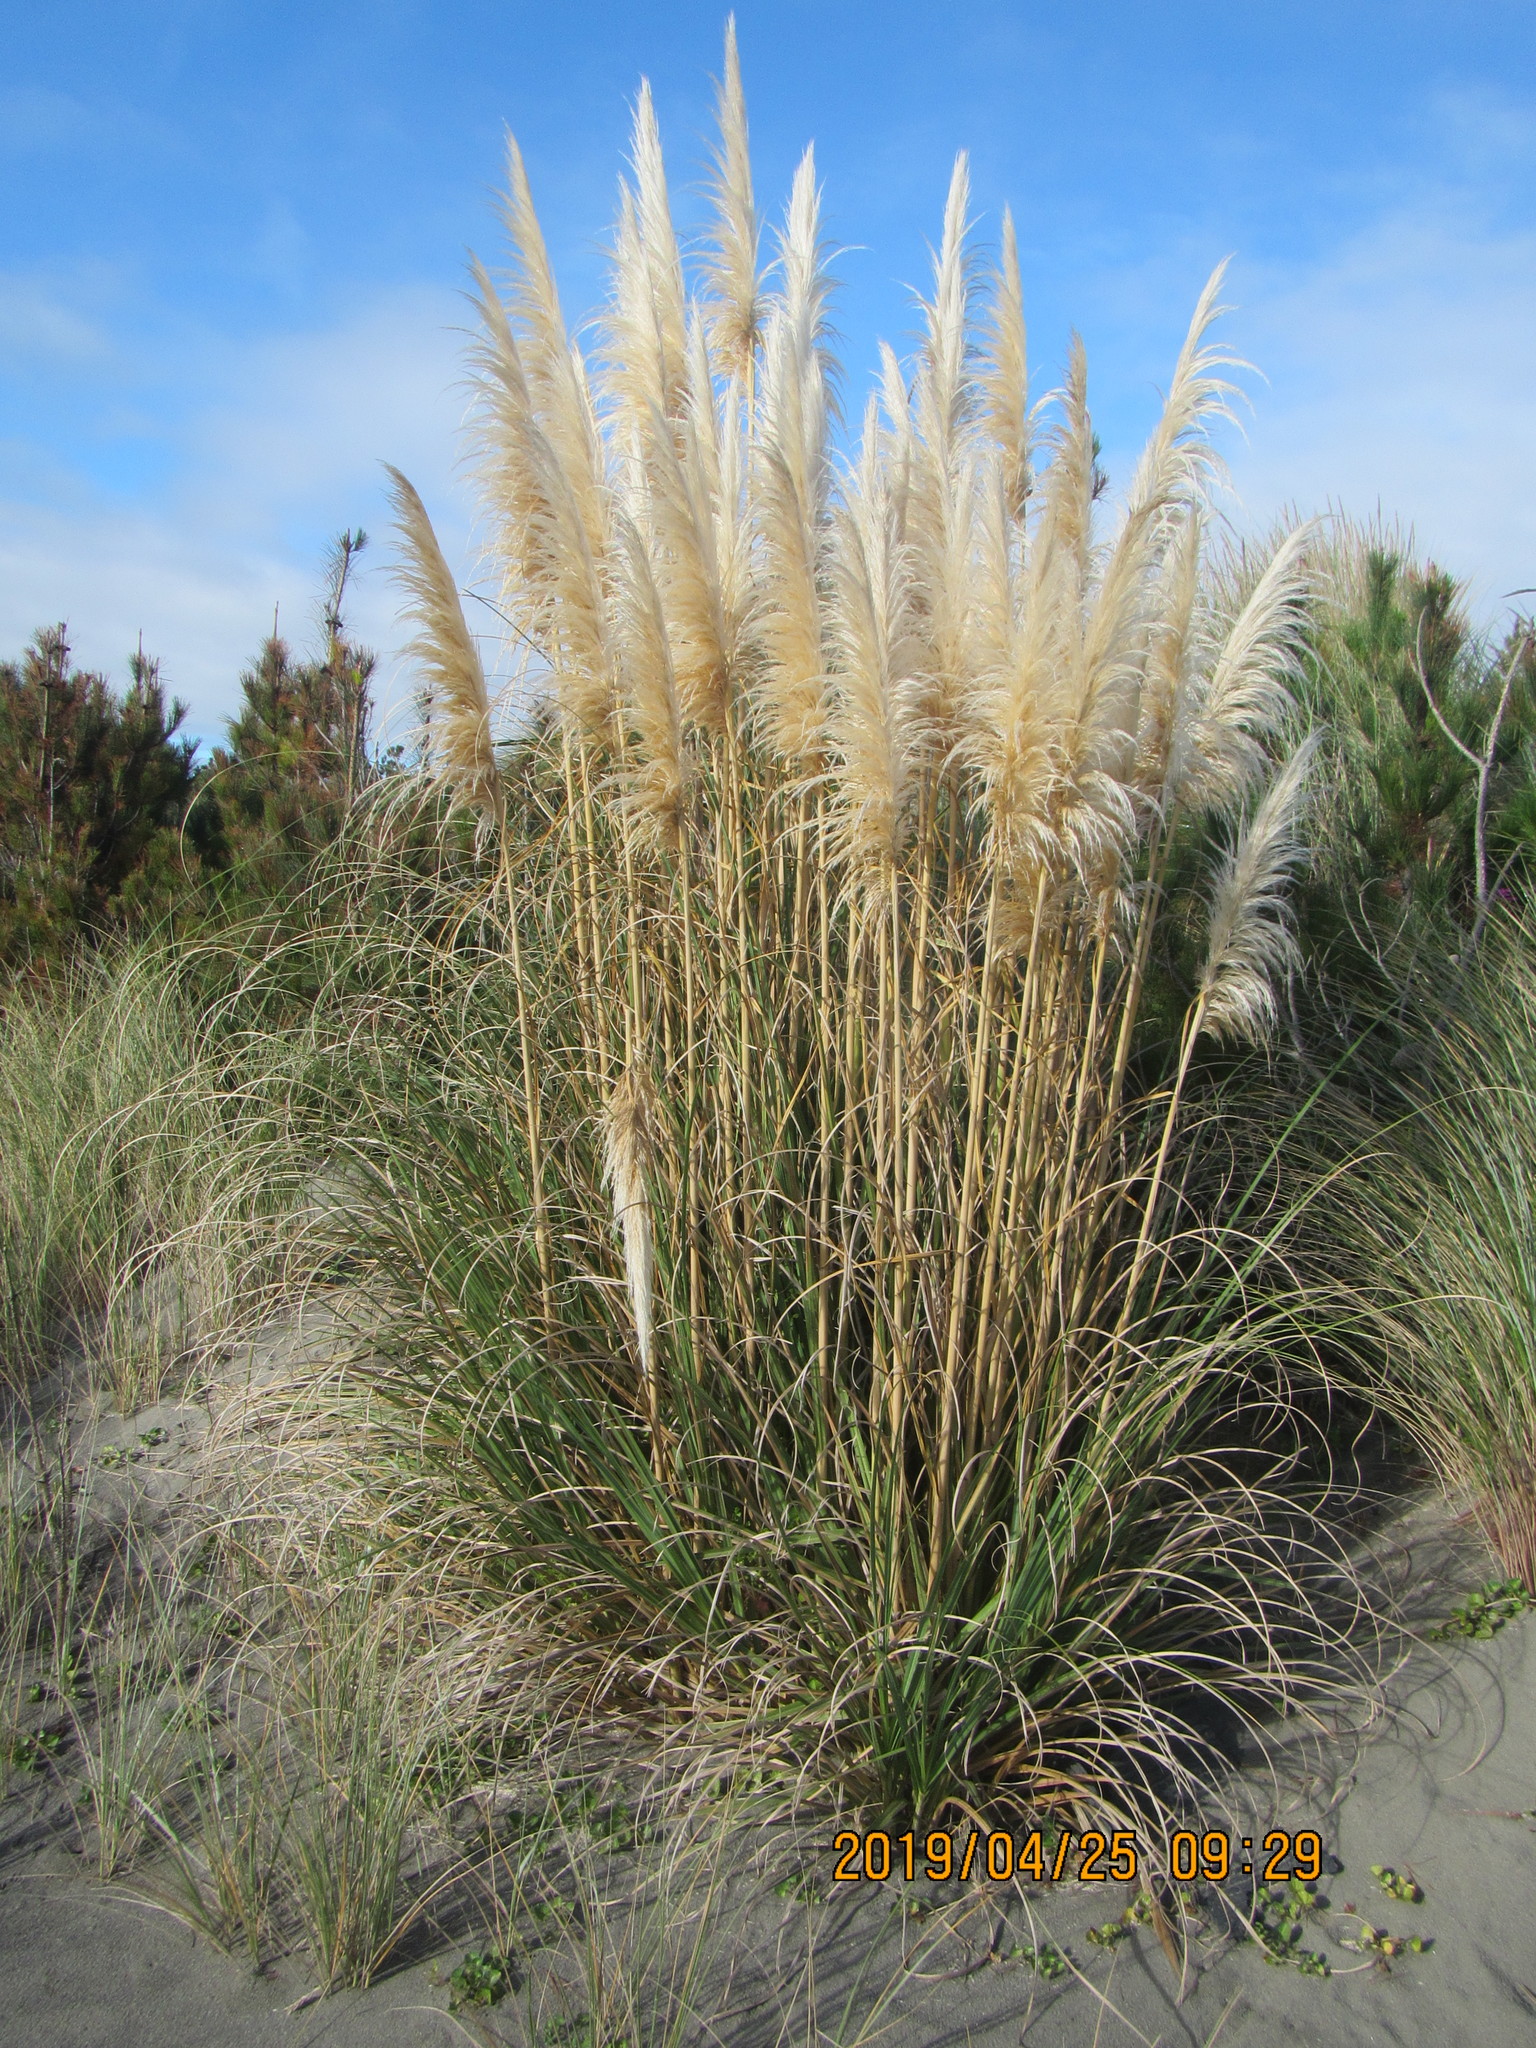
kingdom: Plantae
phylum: Tracheophyta
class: Liliopsida
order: Poales
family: Poaceae
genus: Cortaderia
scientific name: Cortaderia selloana
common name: Uruguayan pampas grass
